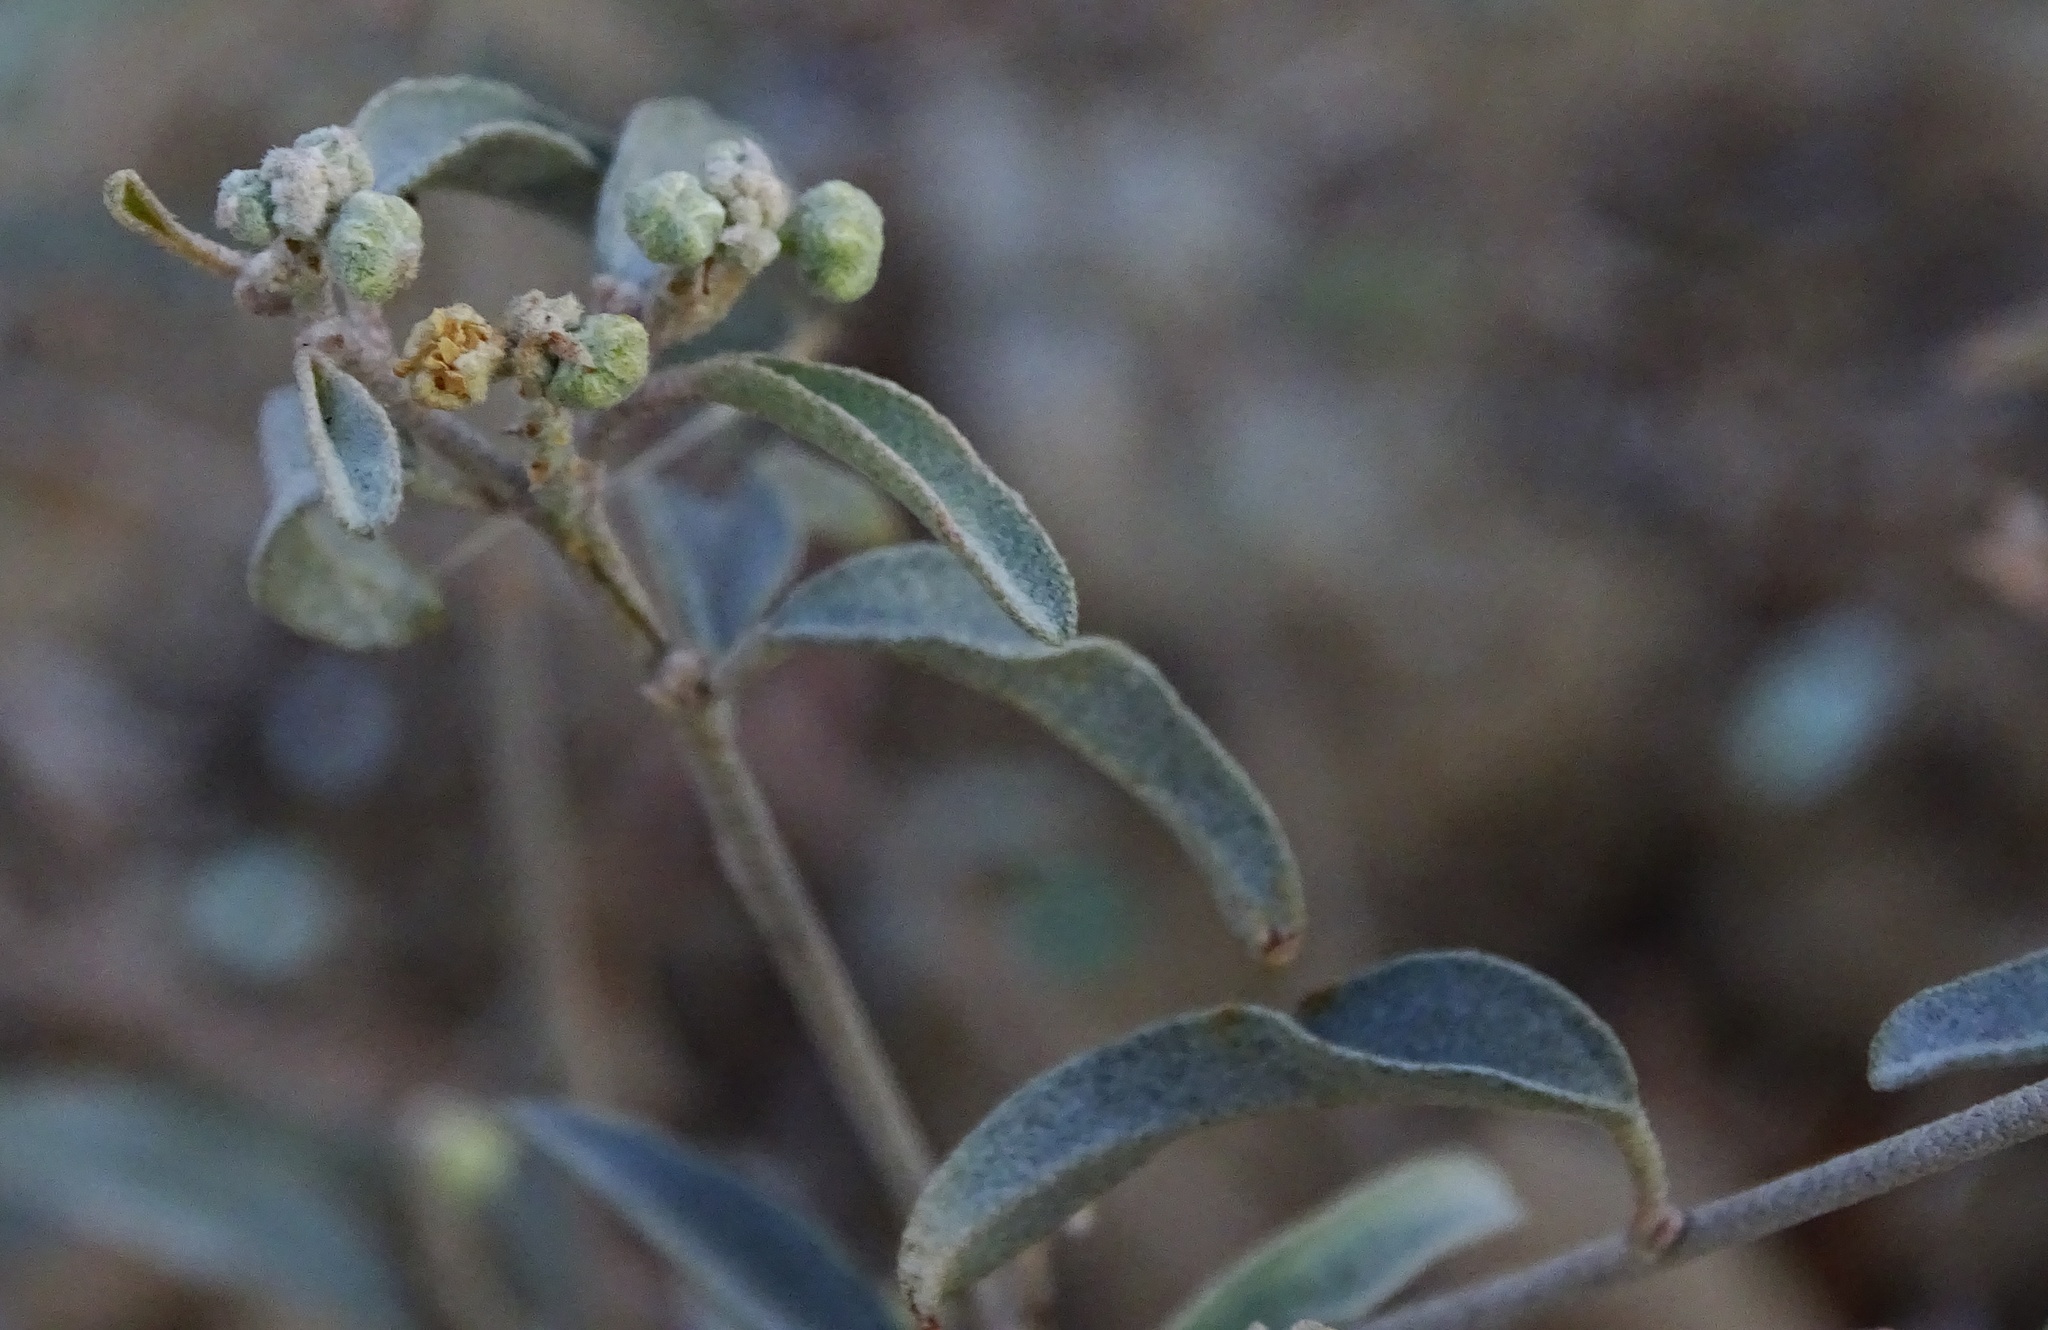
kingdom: Plantae
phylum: Tracheophyta
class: Magnoliopsida
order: Malpighiales
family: Euphorbiaceae
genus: Croton
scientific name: Croton californicus
